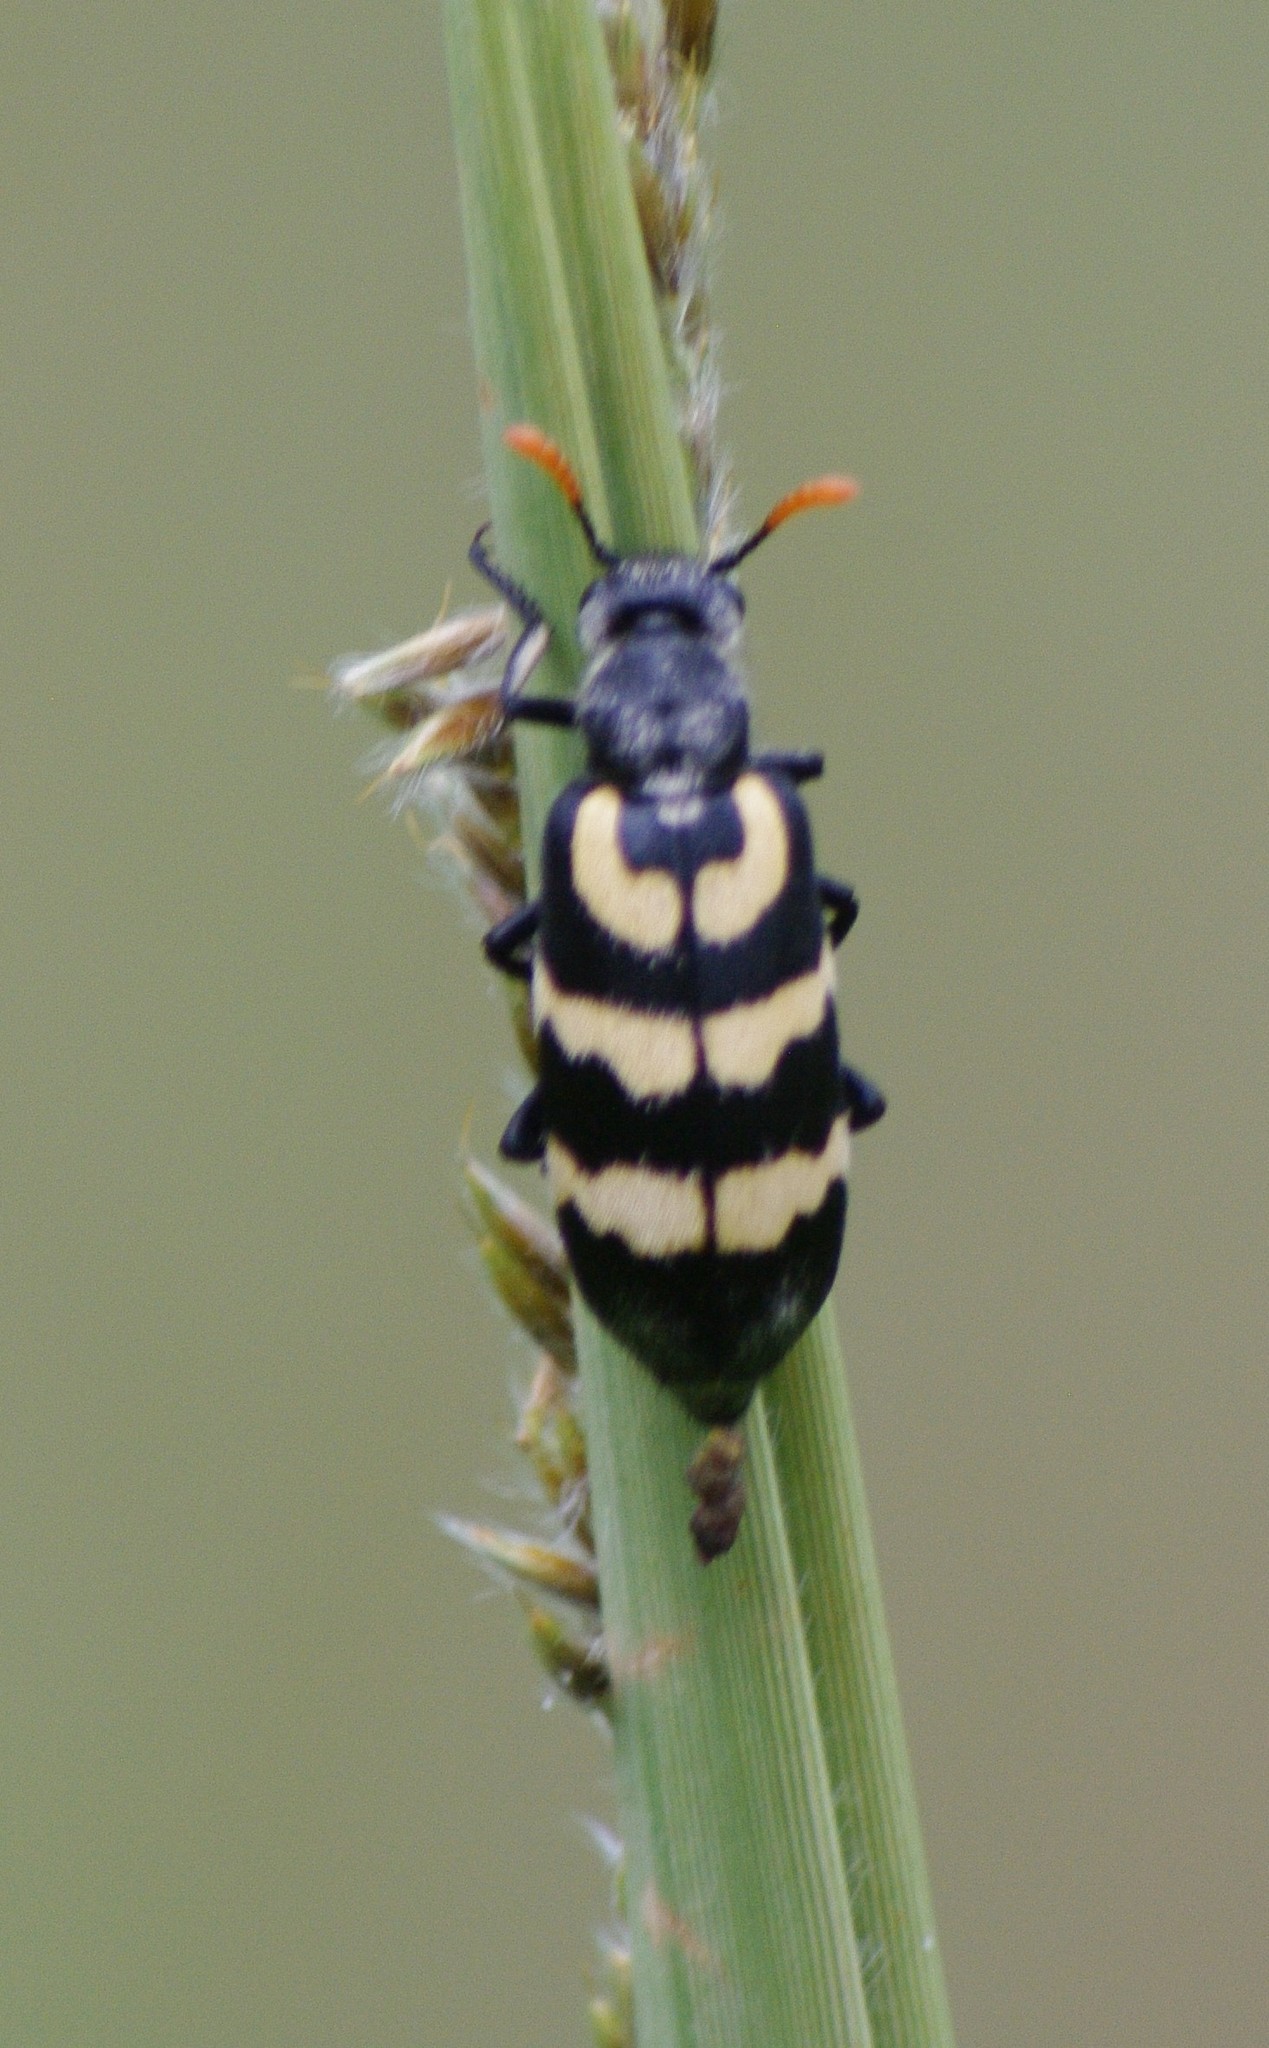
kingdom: Animalia
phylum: Arthropoda
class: Insecta
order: Coleoptera
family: Meloidae
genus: Meloe
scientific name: Meloe lunata
